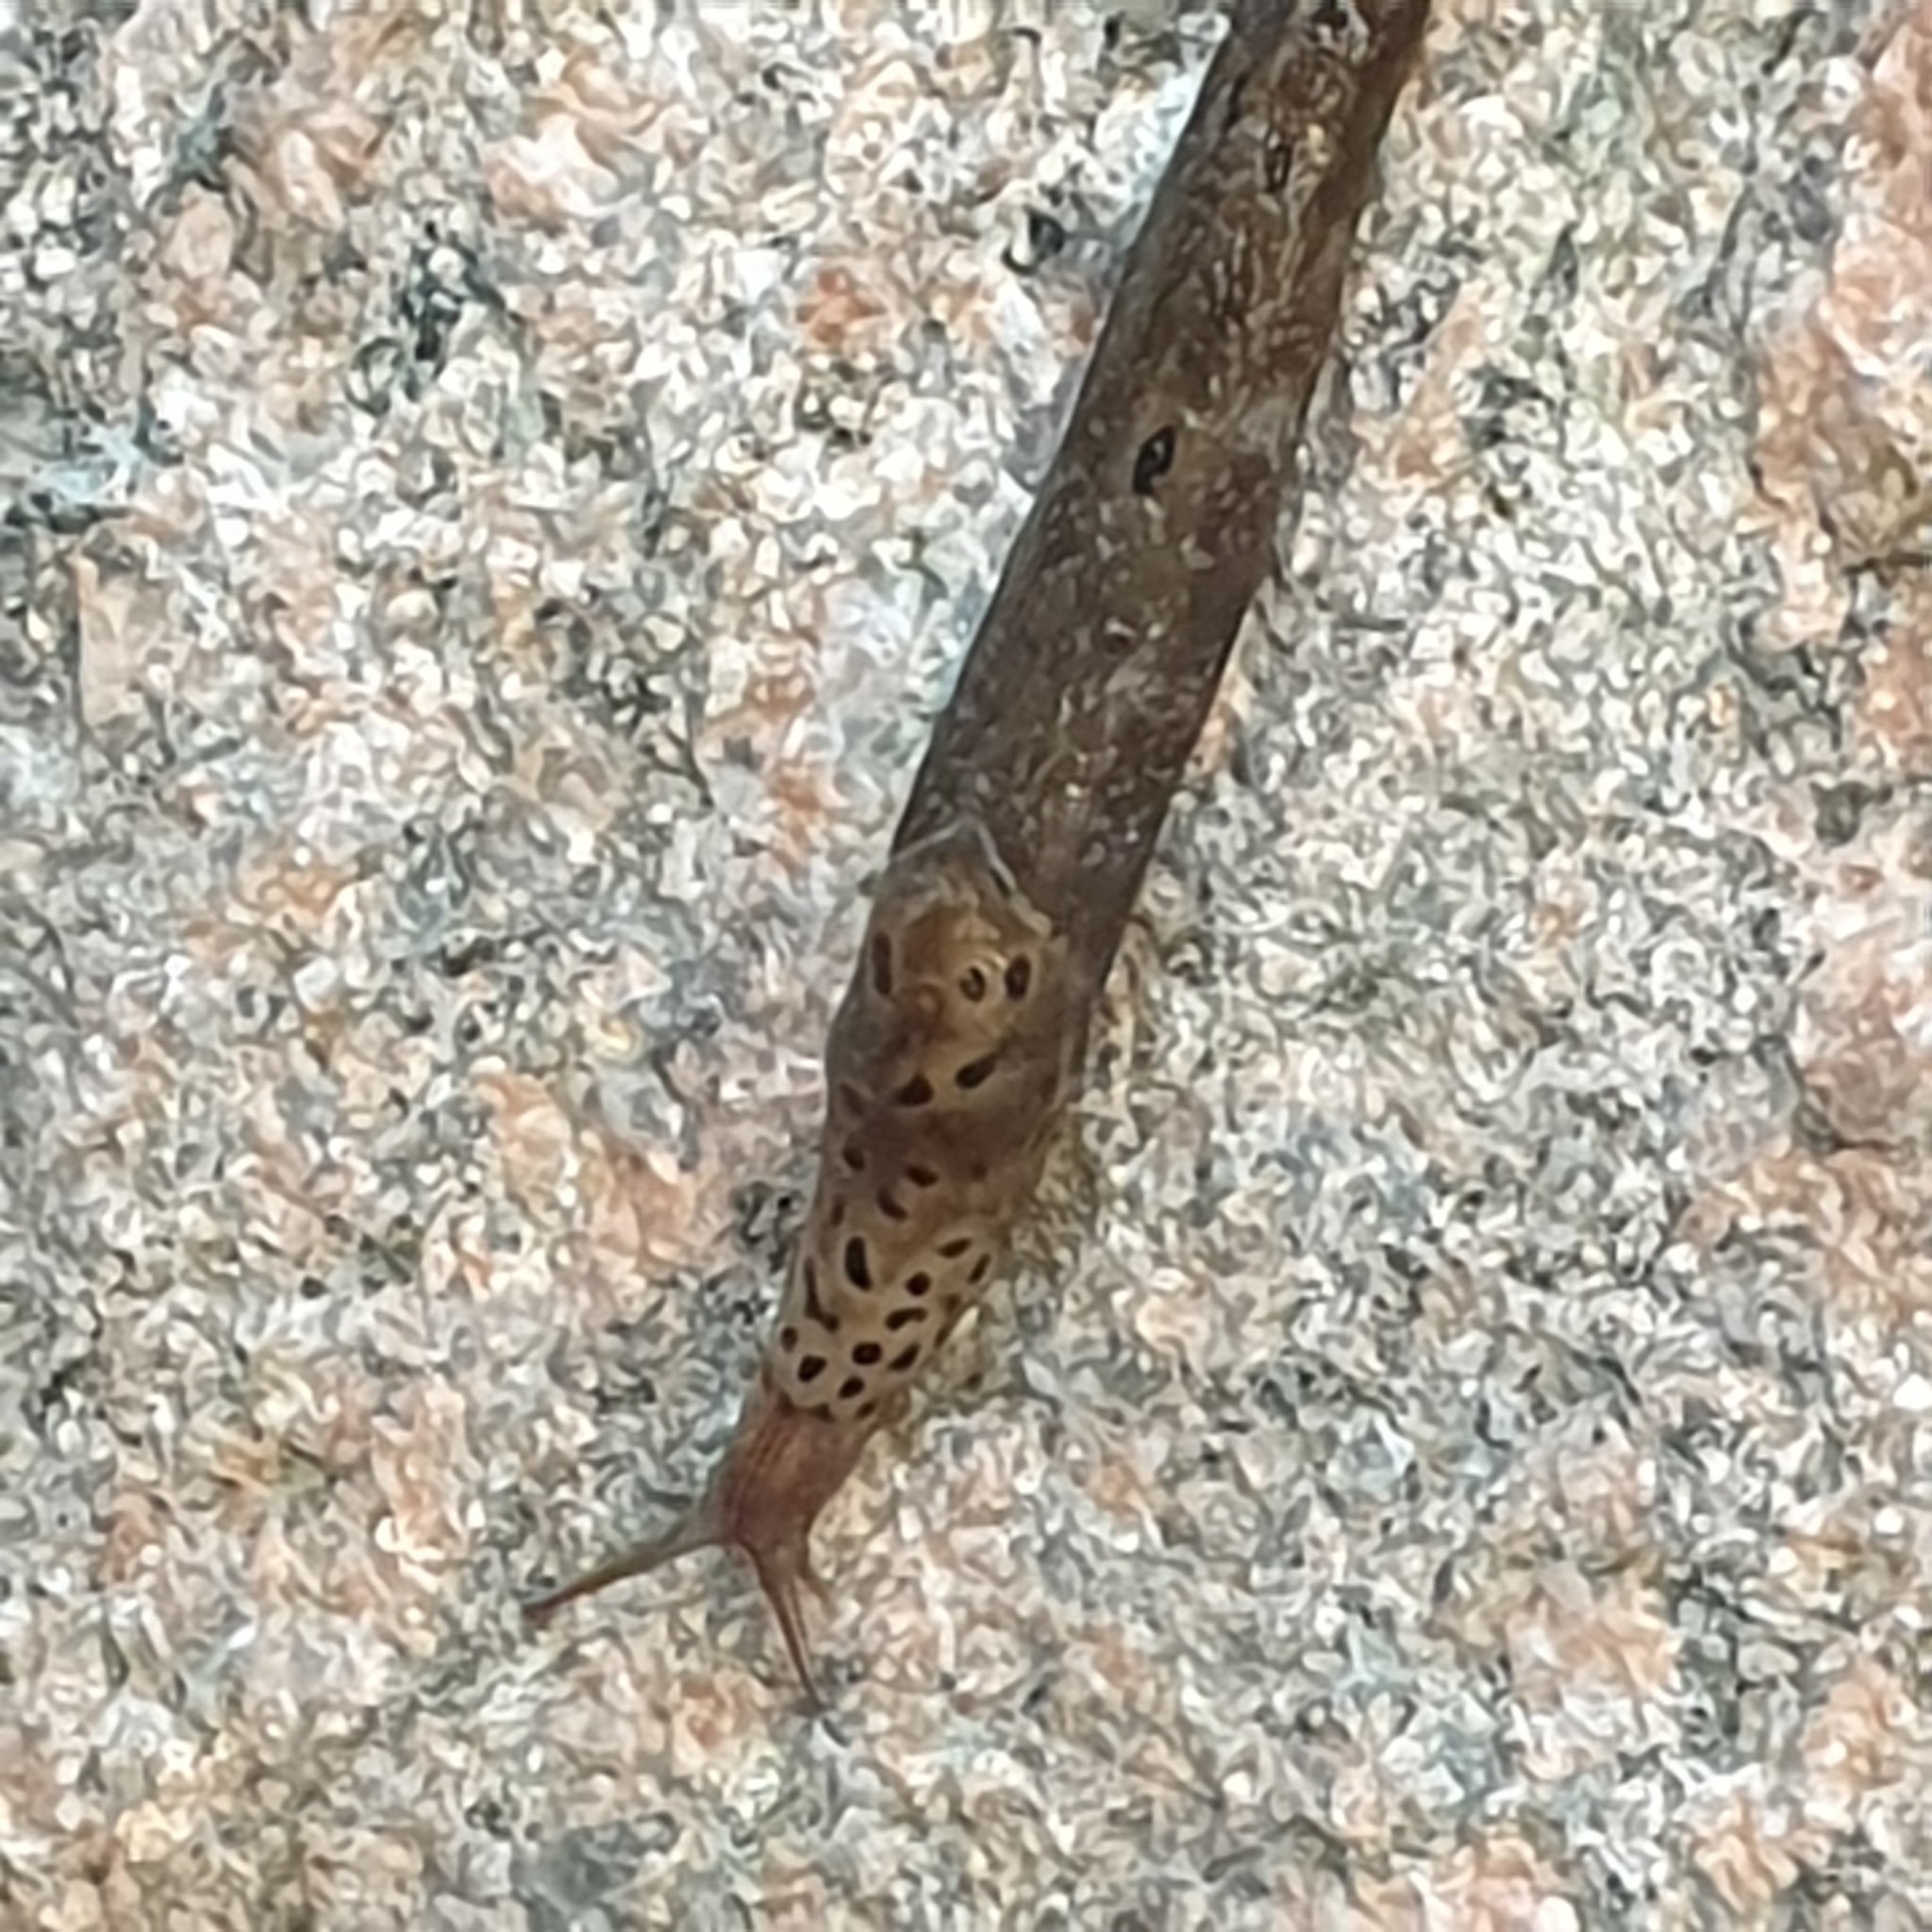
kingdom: Animalia
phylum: Mollusca
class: Gastropoda
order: Stylommatophora
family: Limacidae
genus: Limax
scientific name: Limax maximus
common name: Great grey slug
